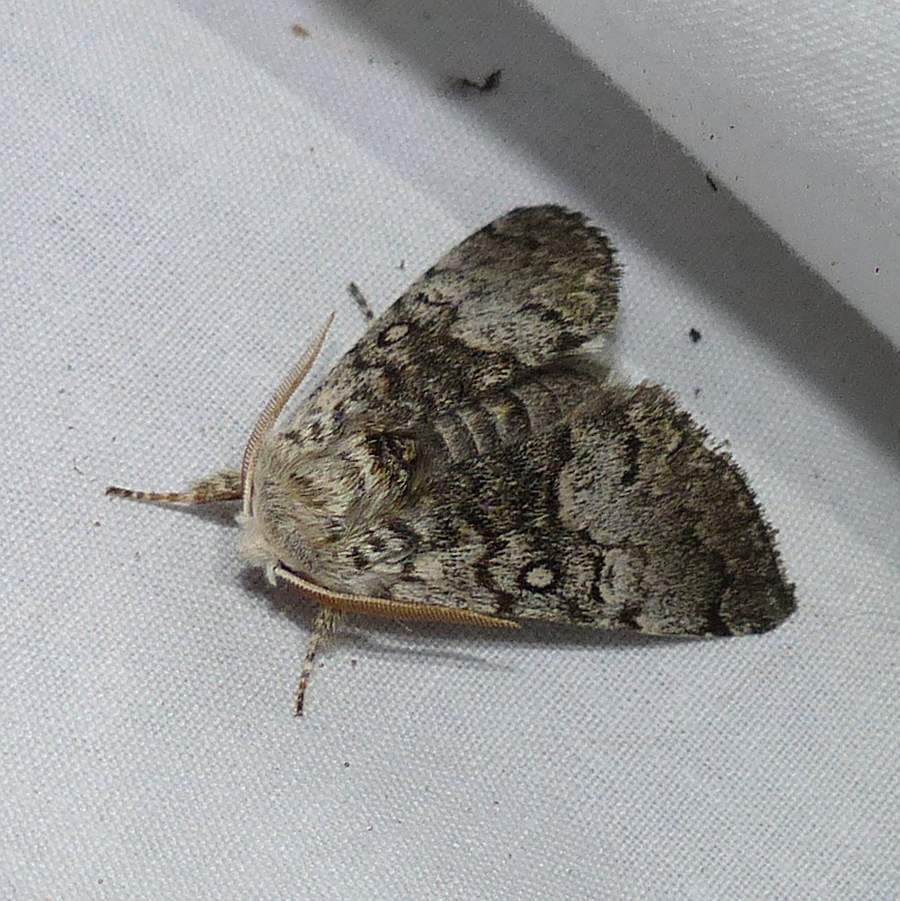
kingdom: Animalia
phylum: Arthropoda
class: Insecta
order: Lepidoptera
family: Noctuidae
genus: Colocasia
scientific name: Colocasia propinquilinea
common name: Close-banded demas
